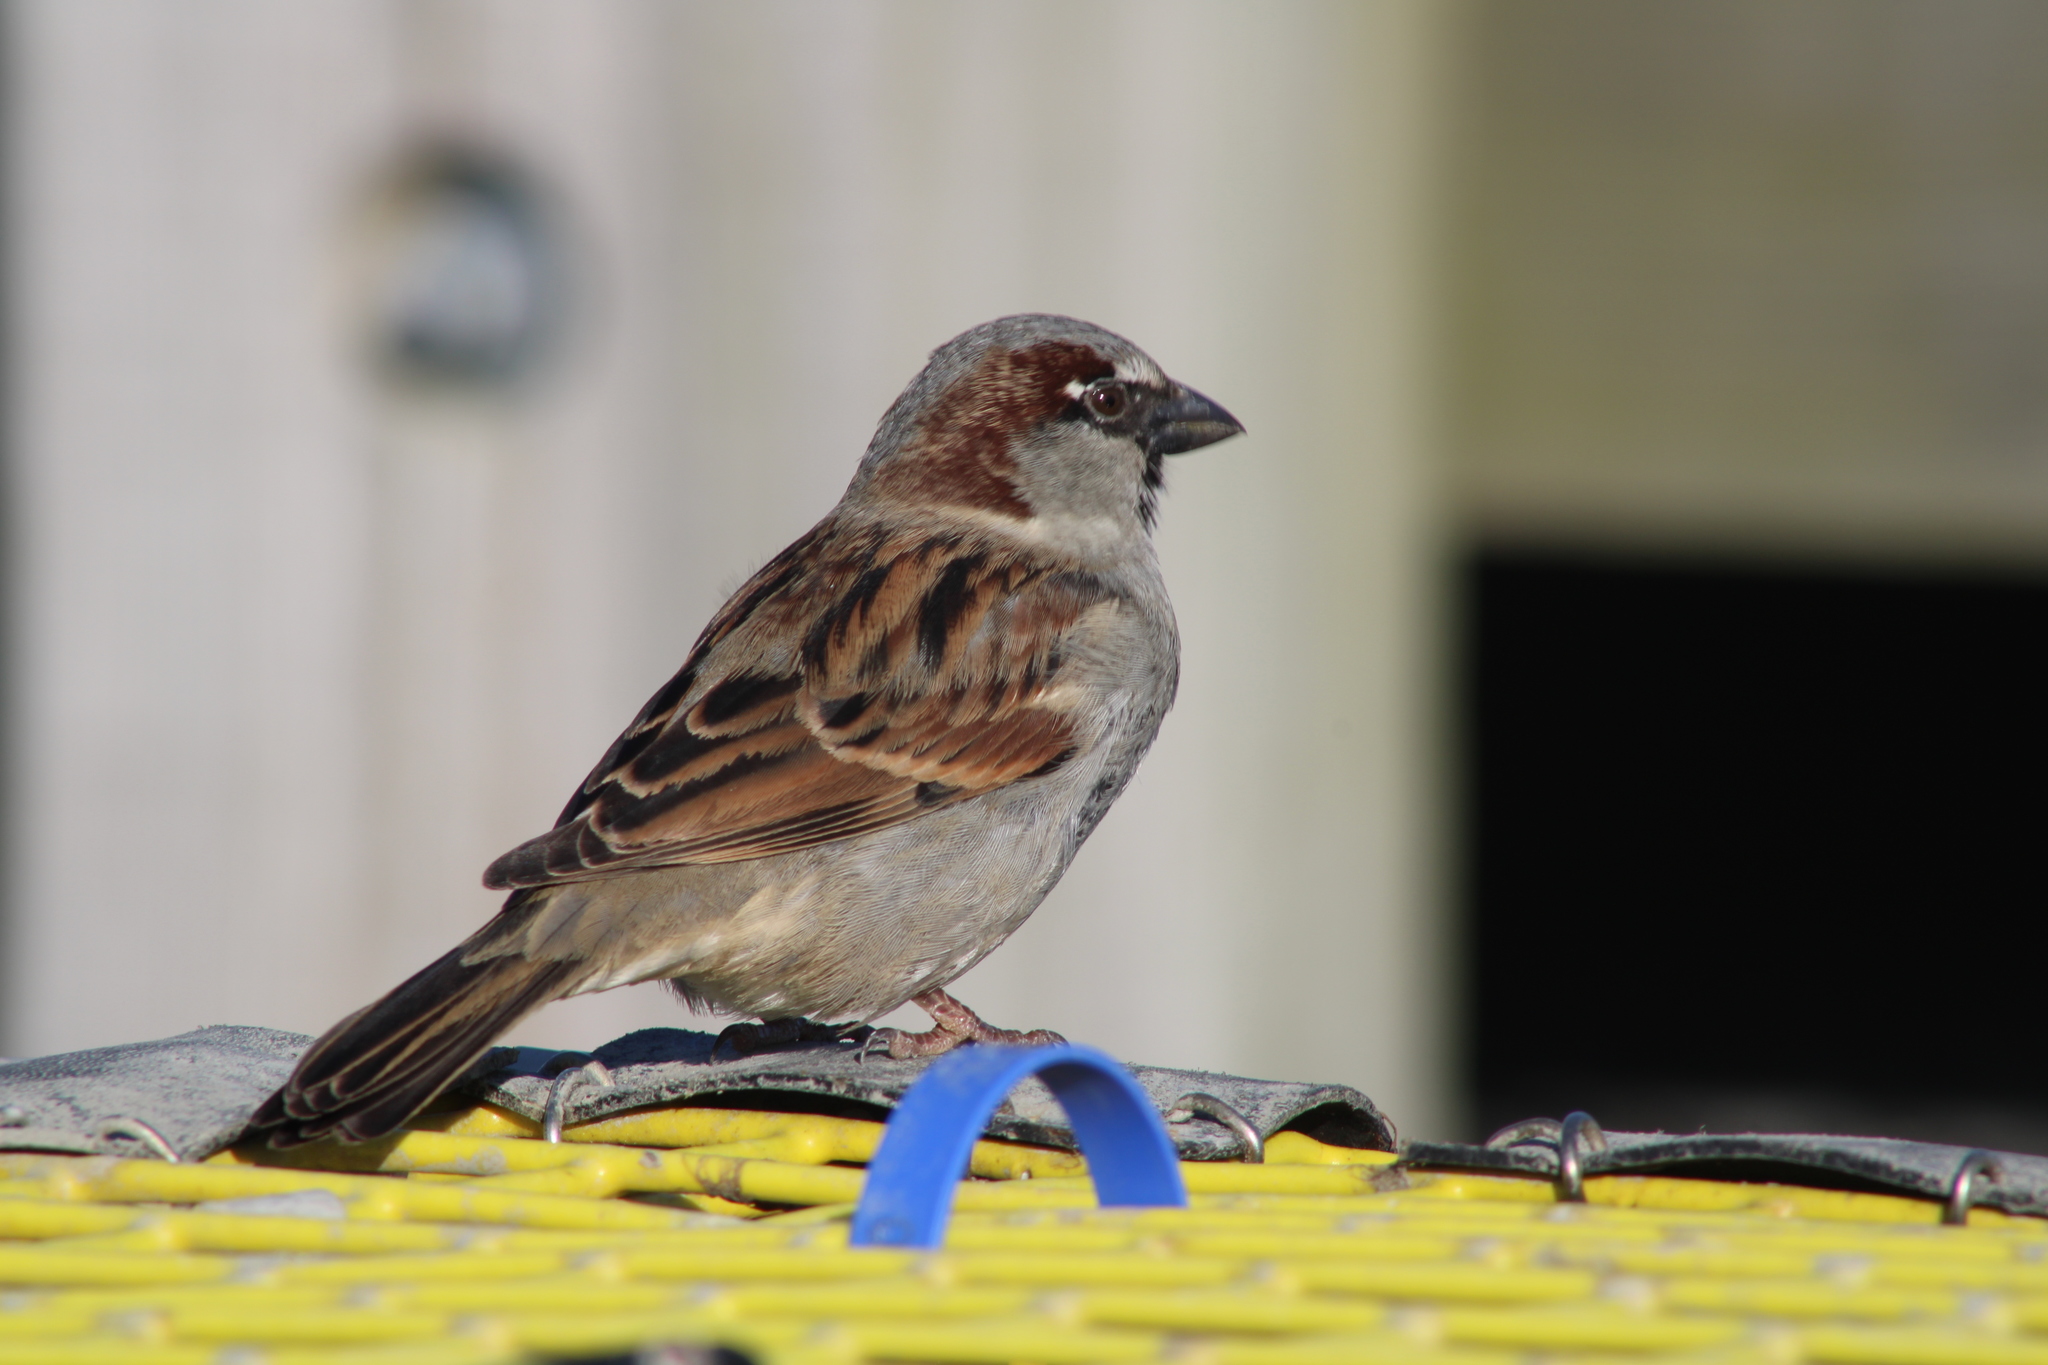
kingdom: Animalia
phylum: Chordata
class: Aves
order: Passeriformes
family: Passeridae
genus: Passer
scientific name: Passer domesticus
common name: House sparrow
